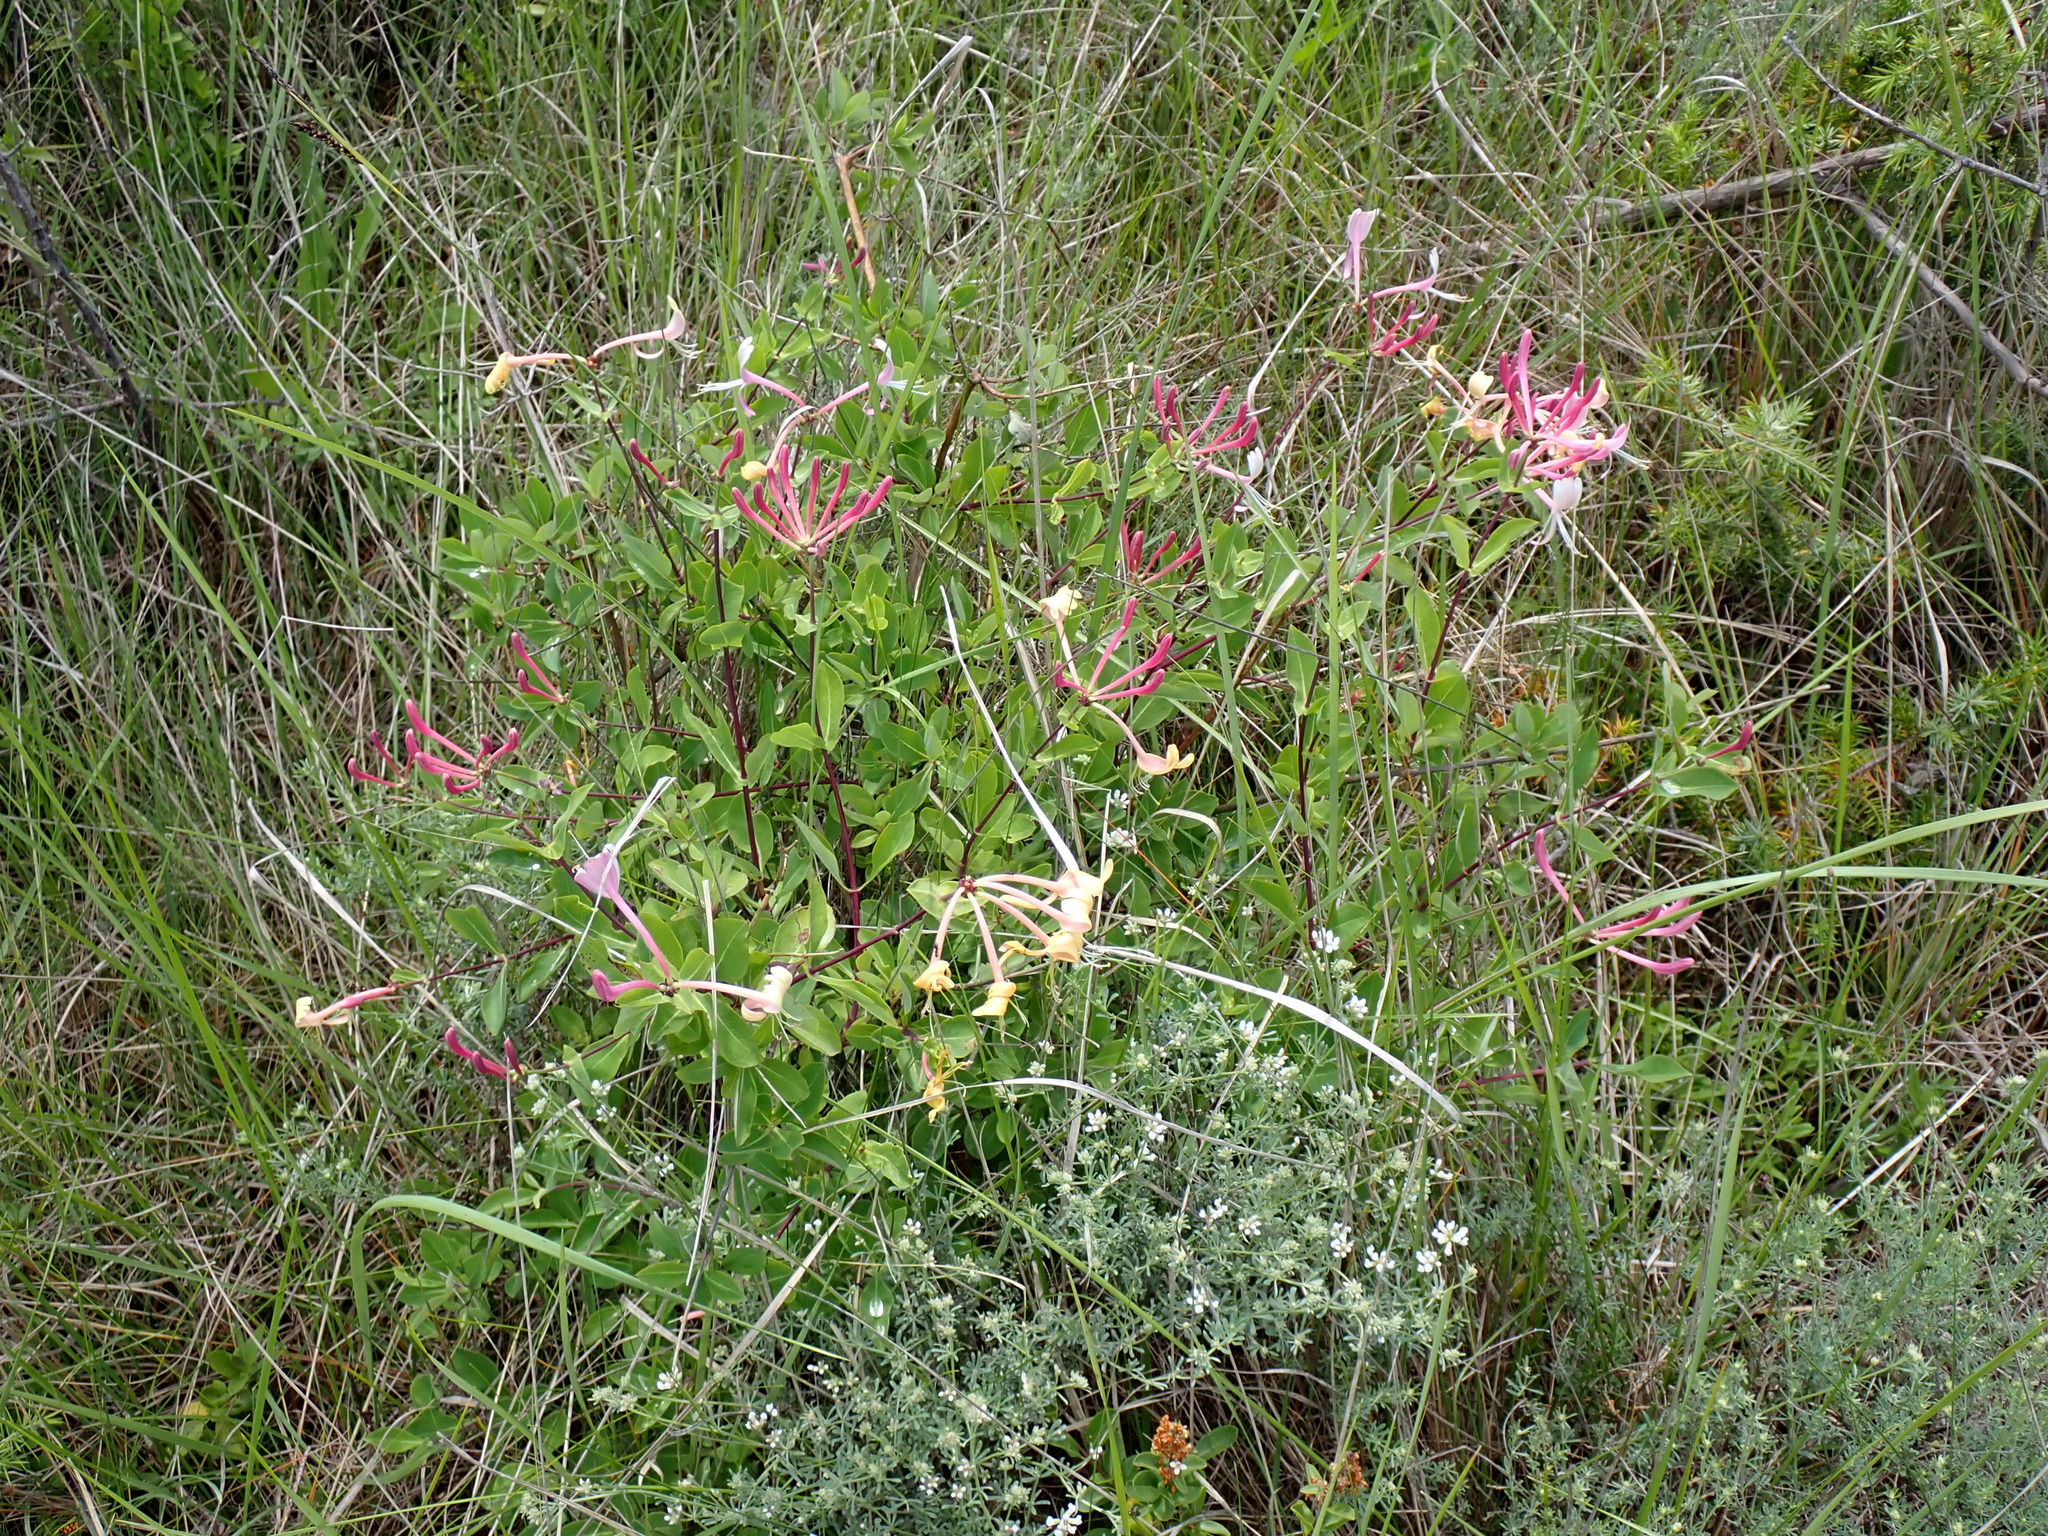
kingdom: Plantae
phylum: Tracheophyta
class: Magnoliopsida
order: Dipsacales
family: Caprifoliaceae
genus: Lonicera
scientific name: Lonicera etrusca
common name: Etruscan honeysuckle
